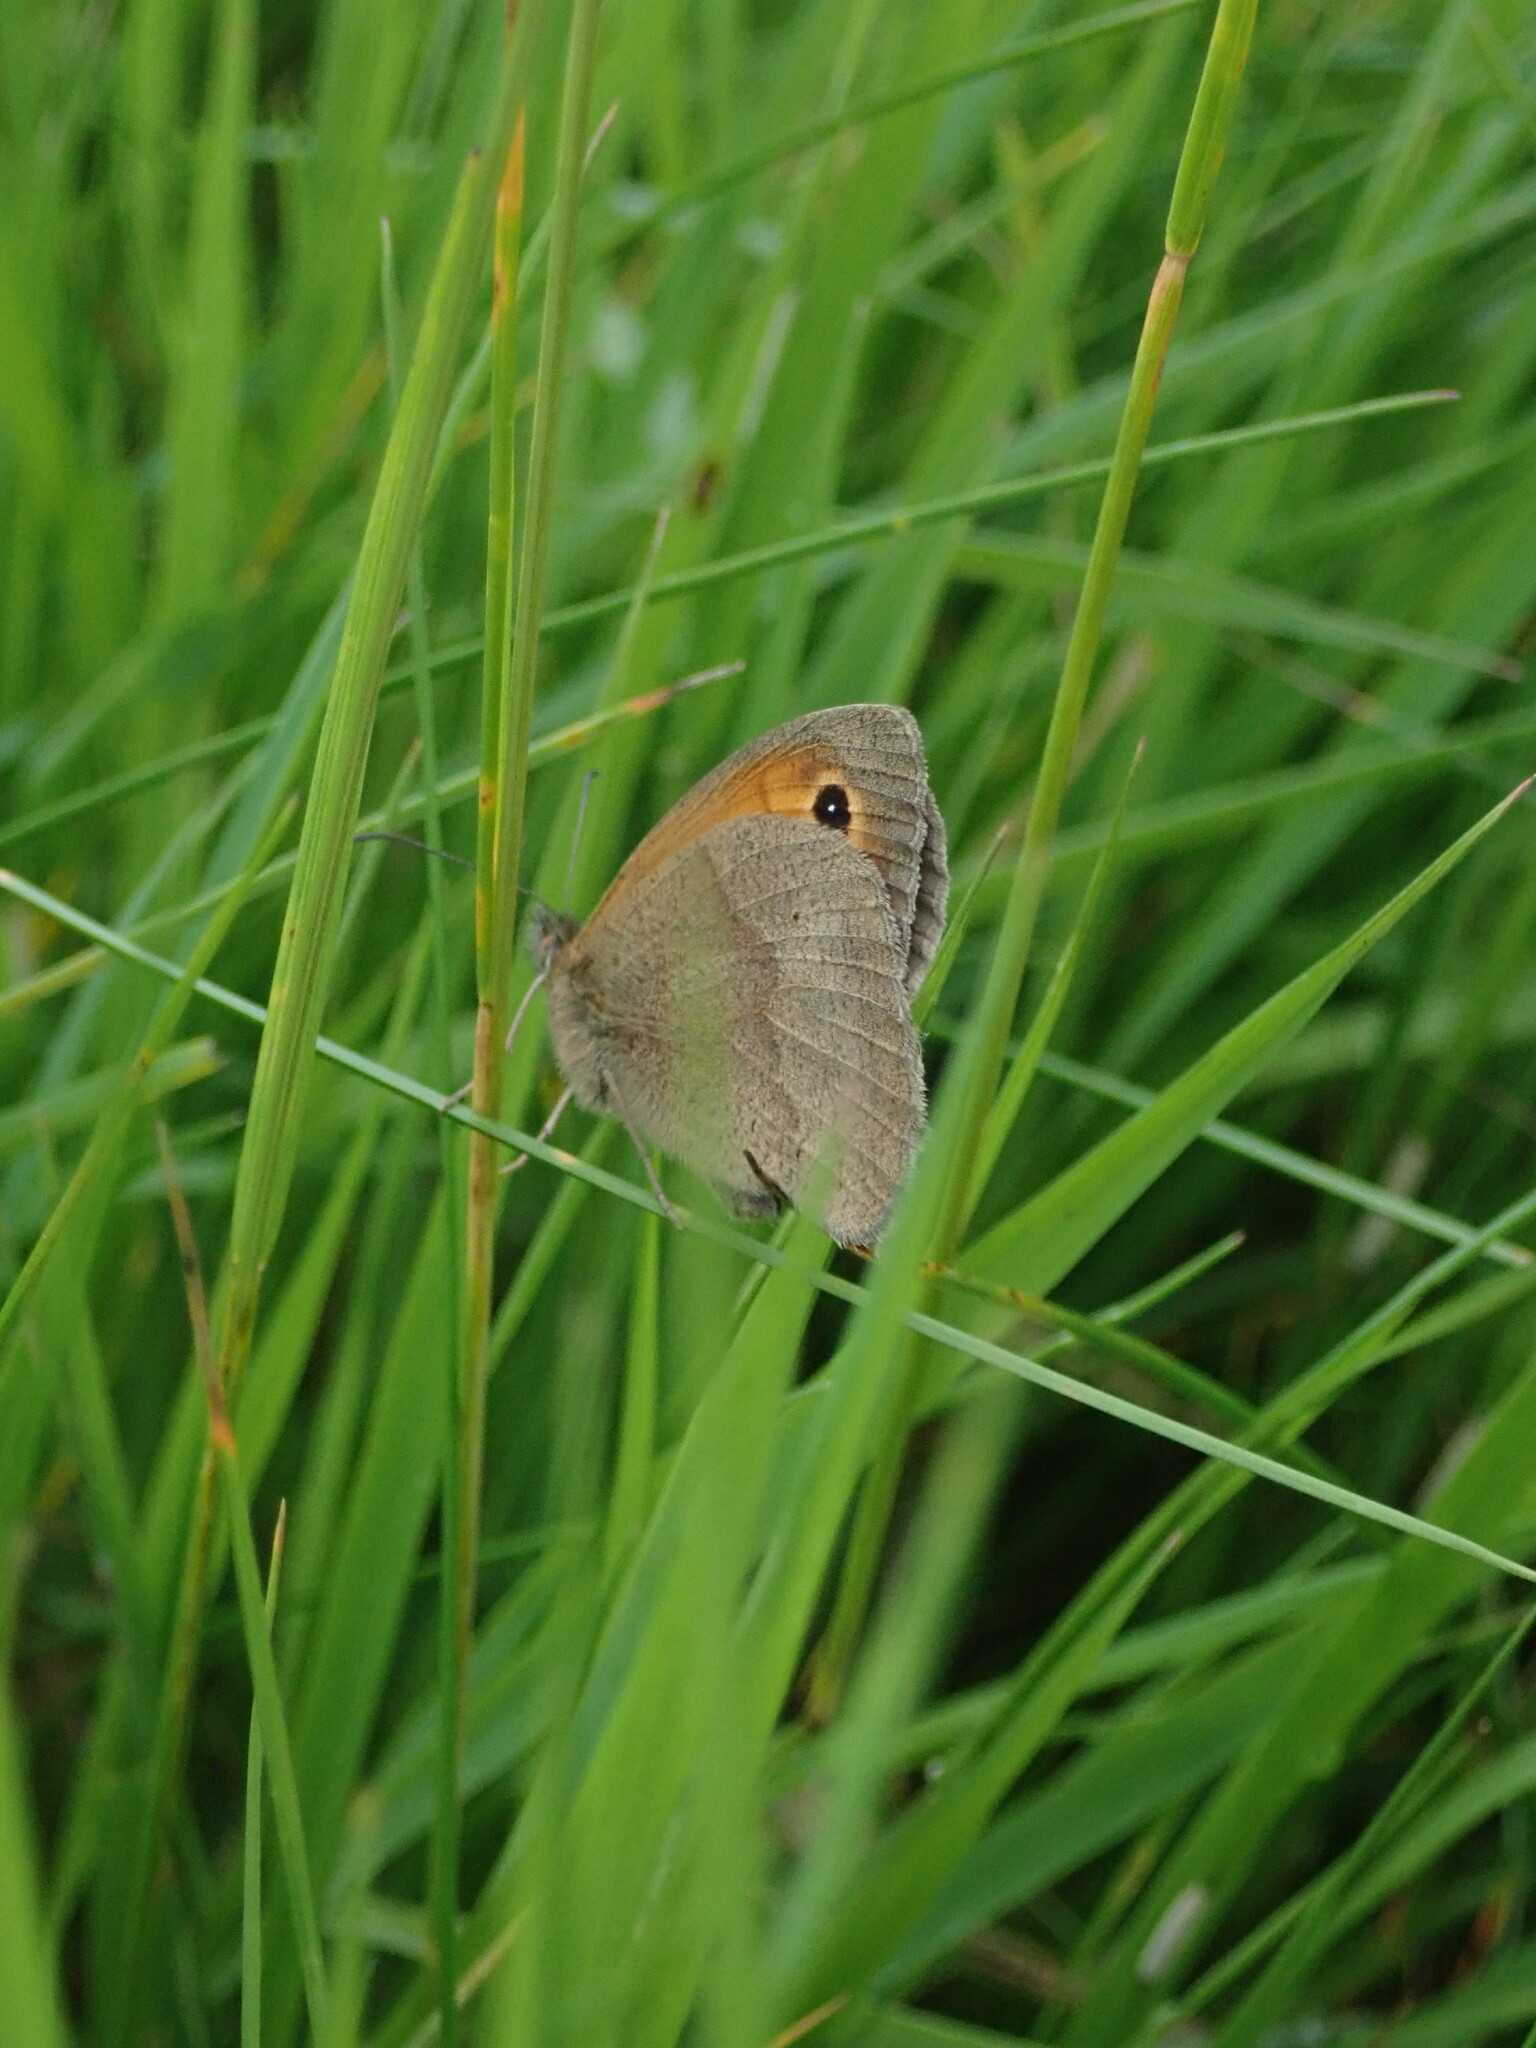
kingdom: Animalia
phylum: Arthropoda
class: Insecta
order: Lepidoptera
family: Nymphalidae
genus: Maniola
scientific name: Maniola jurtina
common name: Meadow brown
